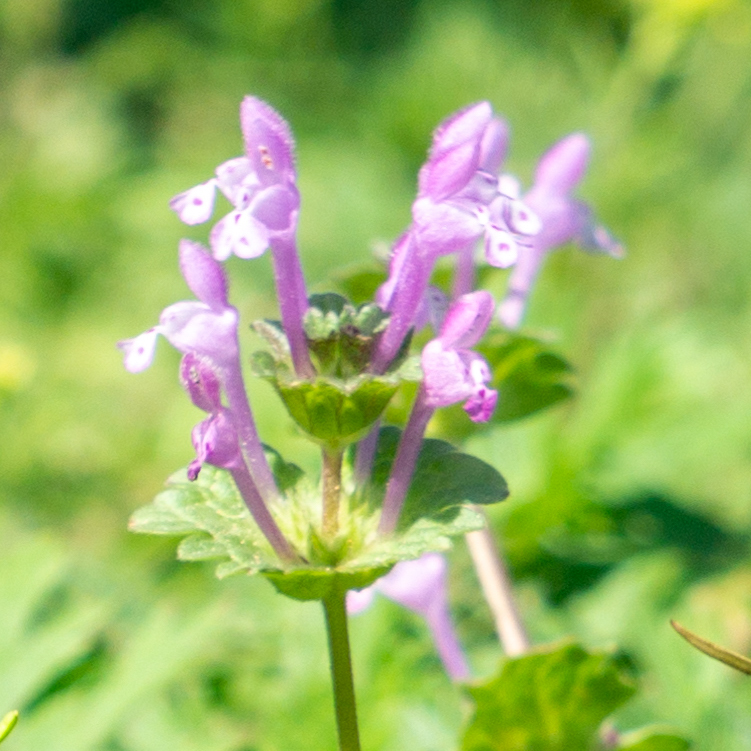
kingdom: Plantae
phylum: Tracheophyta
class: Magnoliopsida
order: Lamiales
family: Lamiaceae
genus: Lamium
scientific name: Lamium amplexicaule
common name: Henbit dead-nettle
